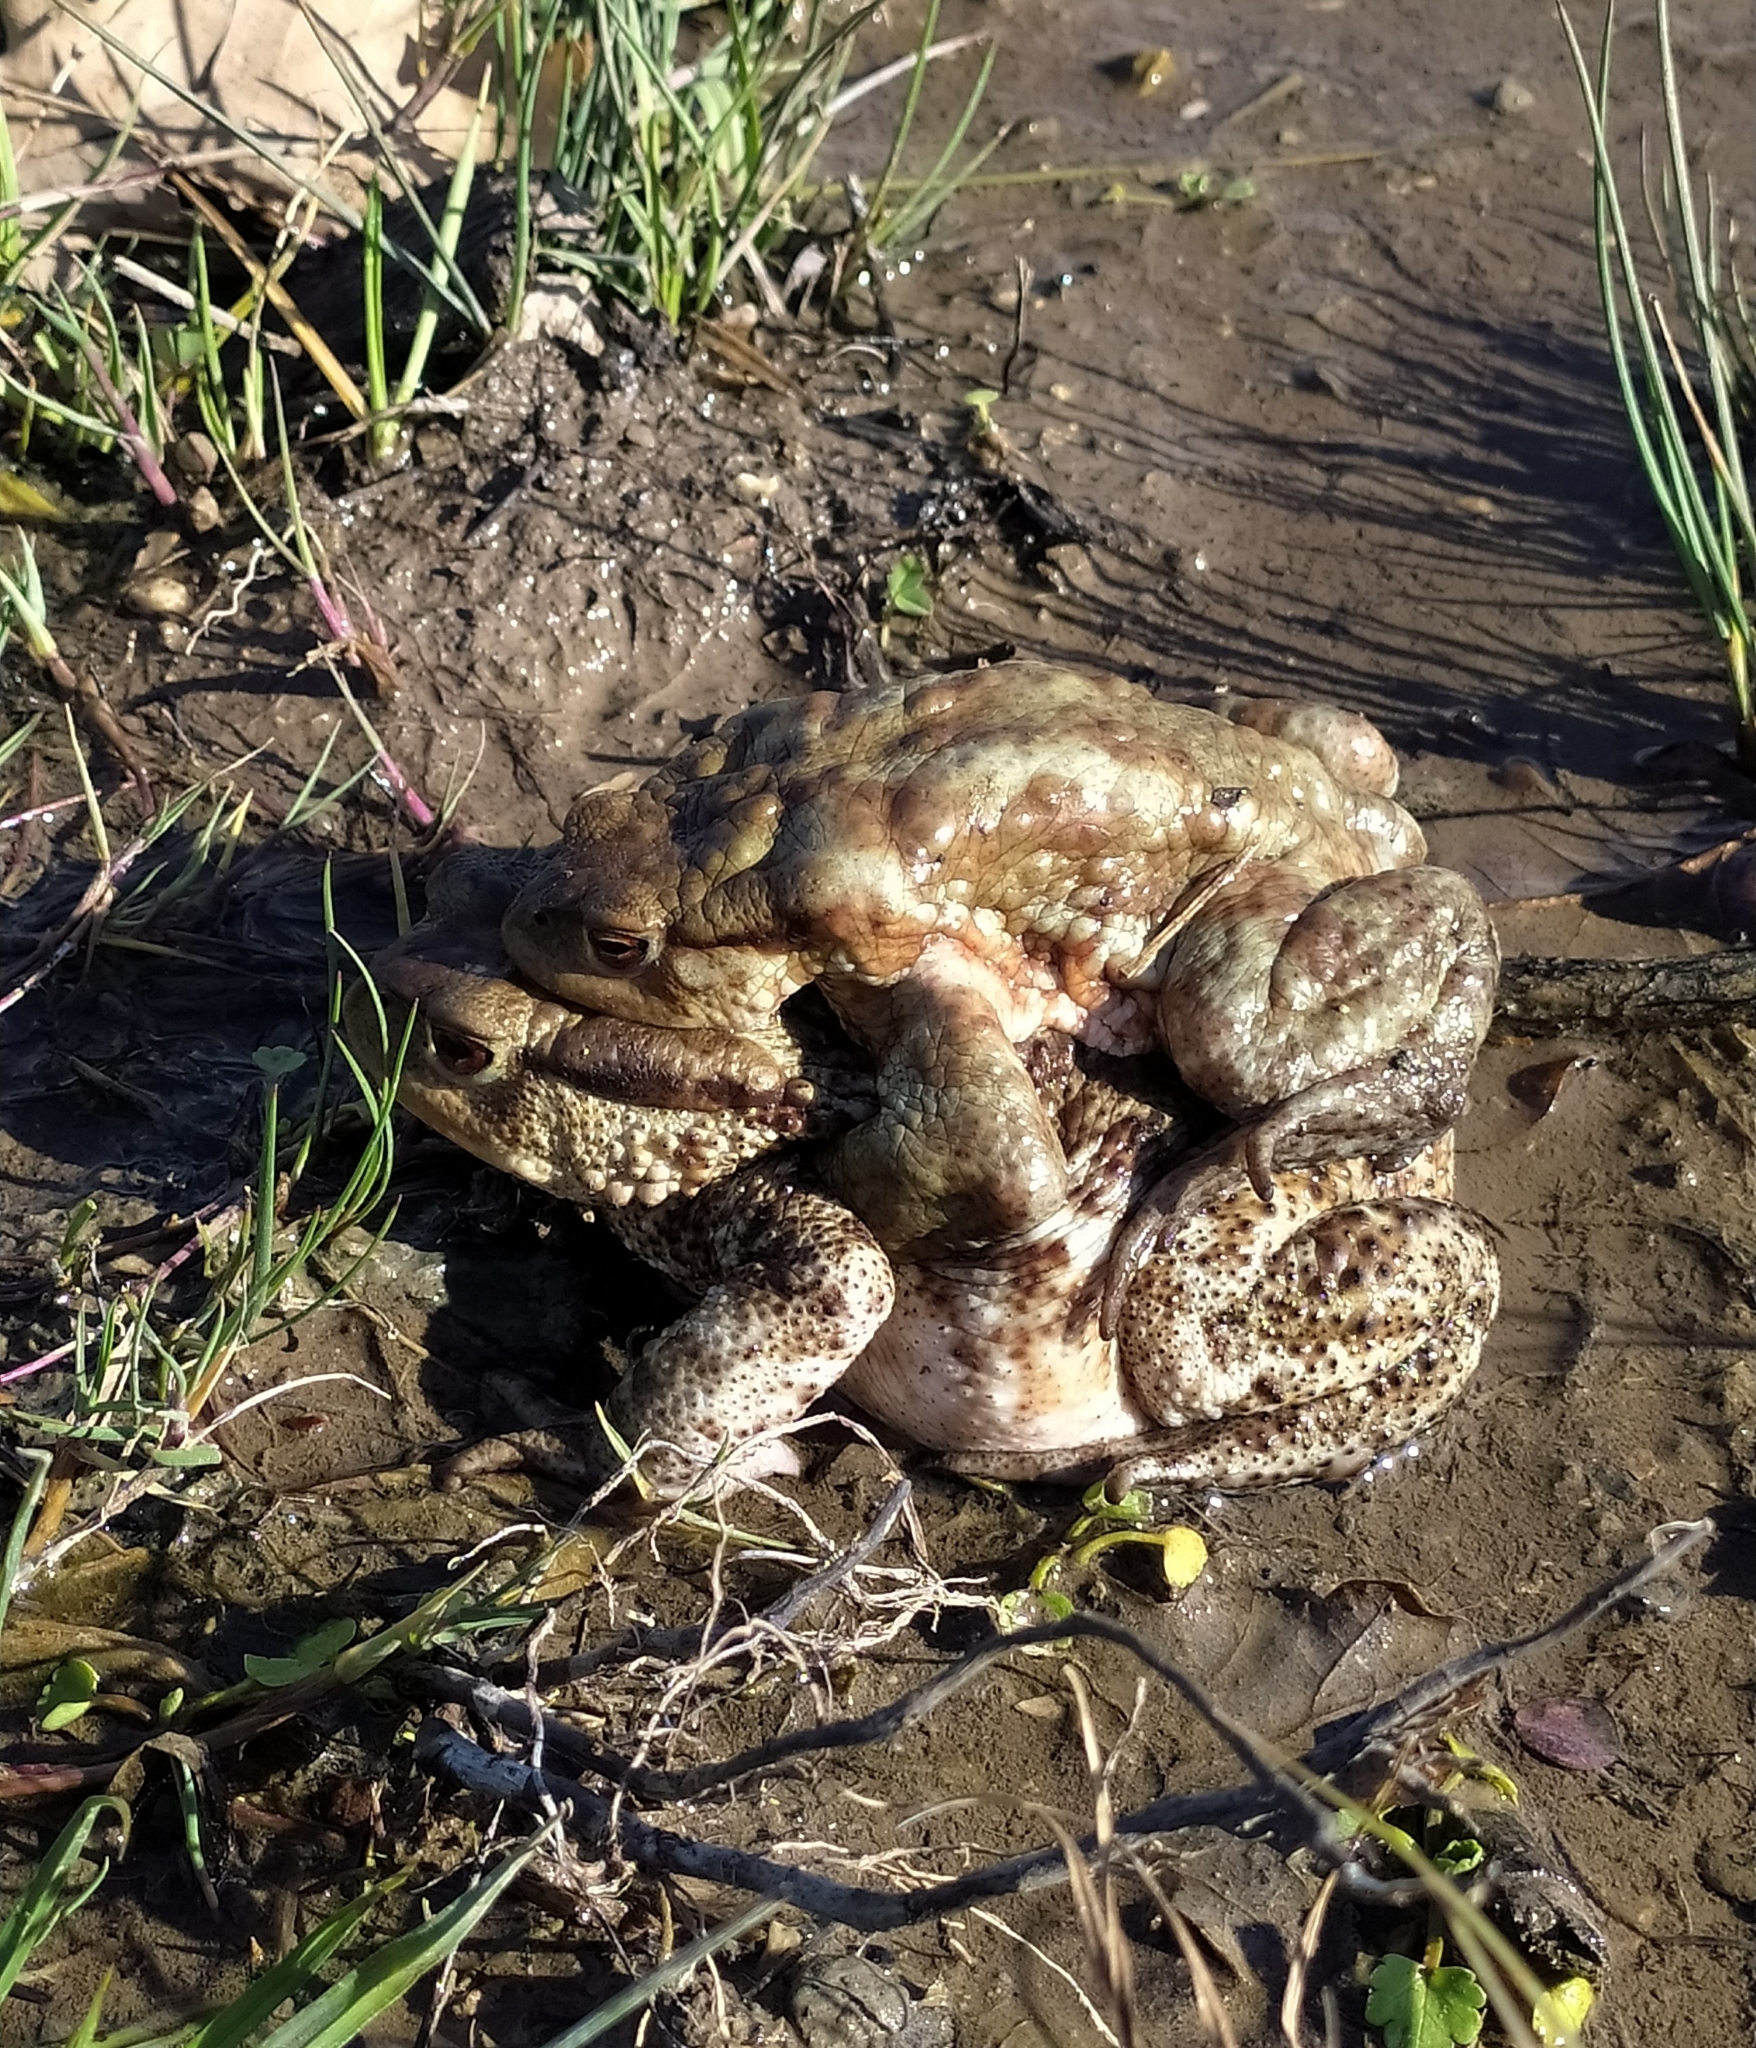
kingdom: Animalia
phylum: Chordata
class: Amphibia
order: Anura
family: Bufonidae
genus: Bufo
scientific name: Bufo bufo
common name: Common toad
